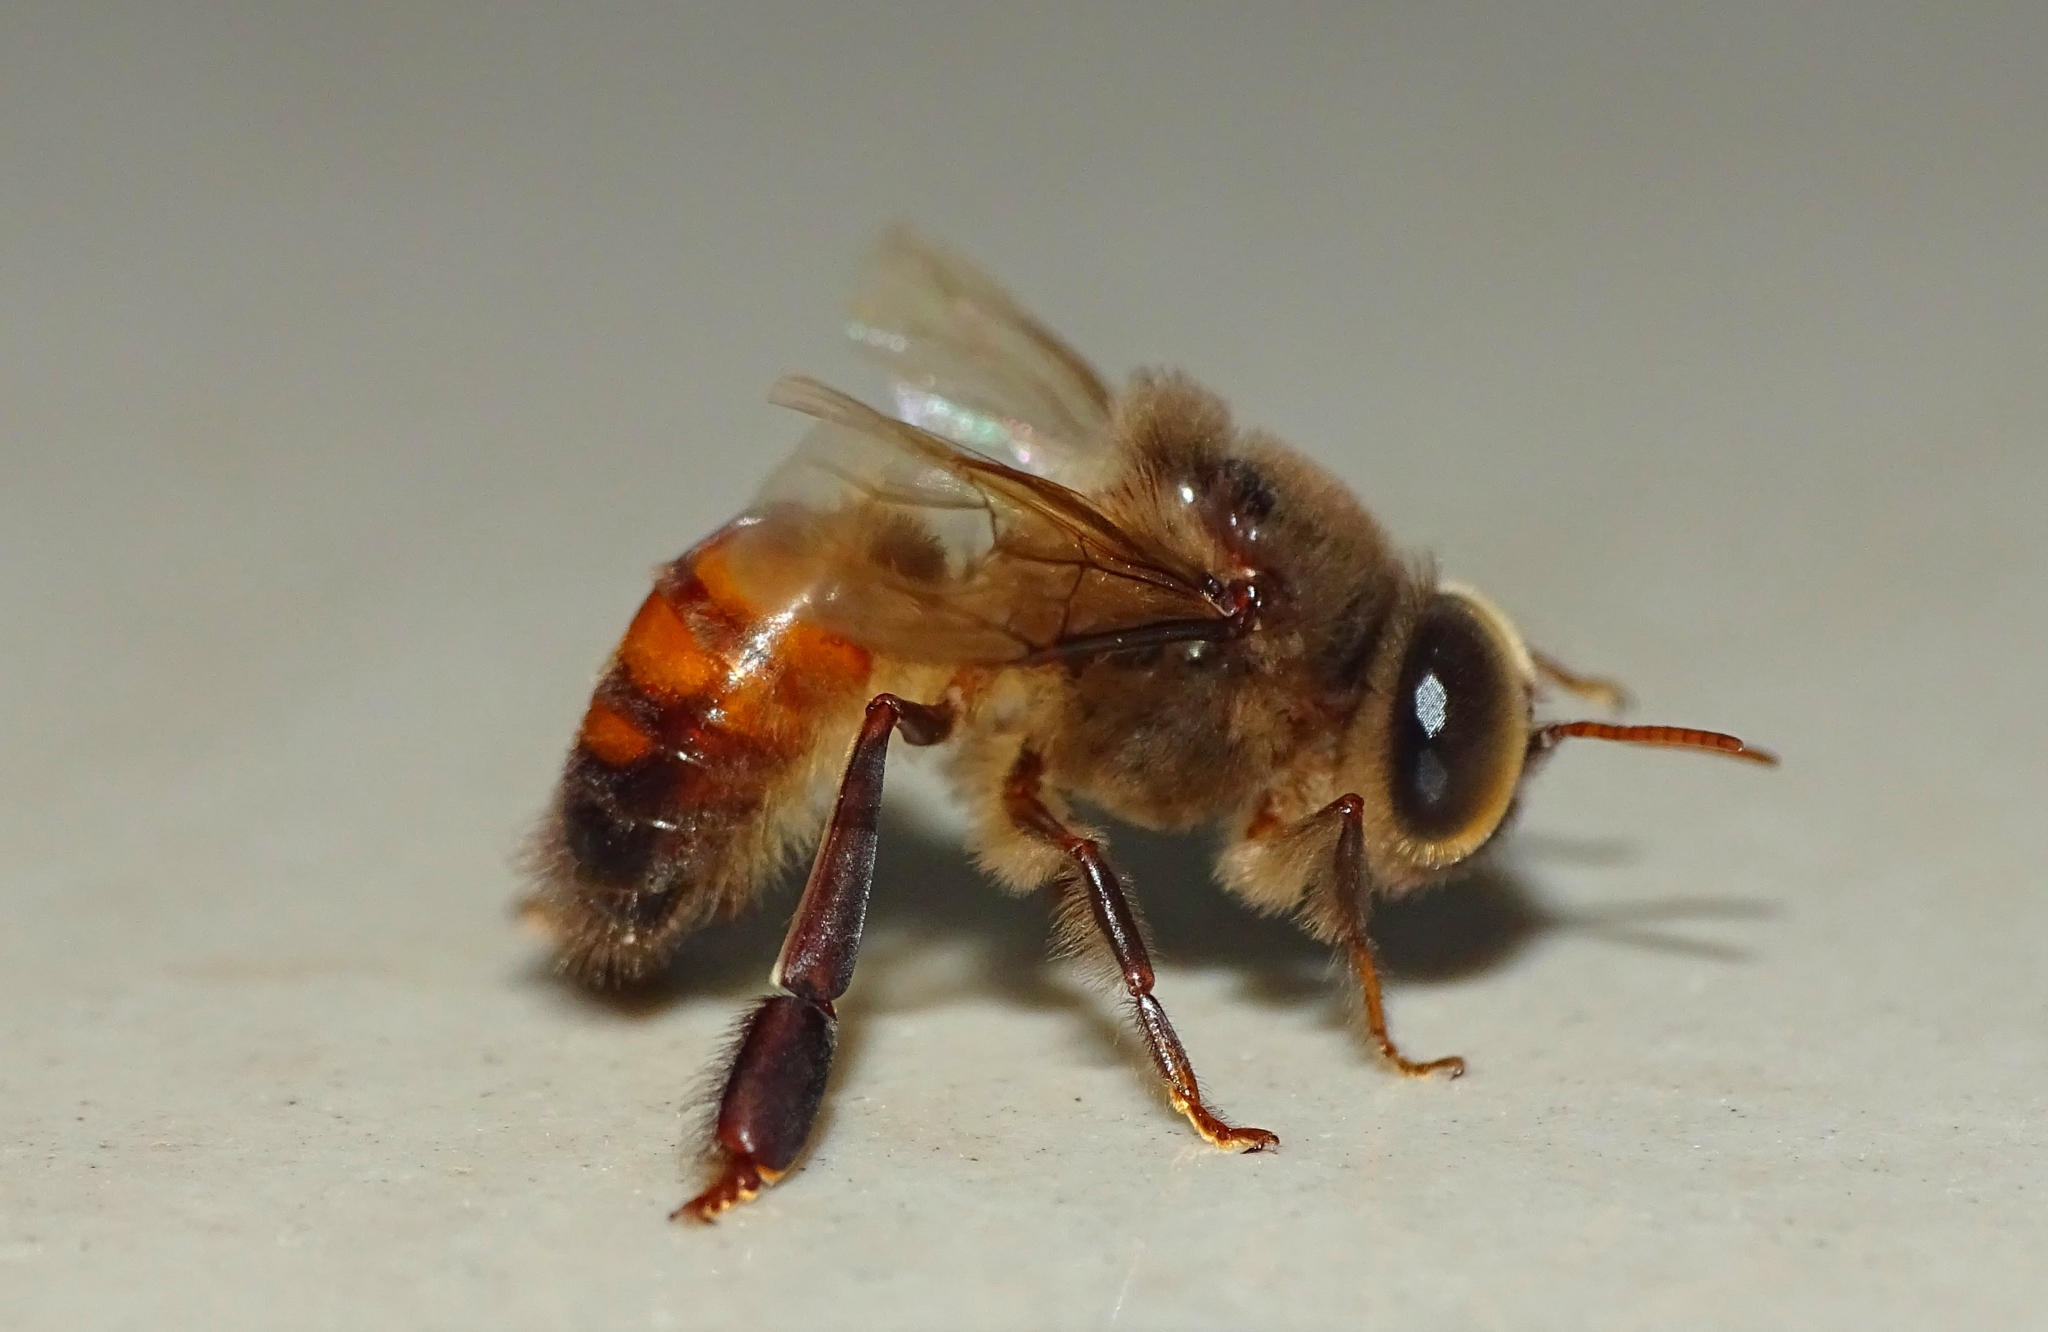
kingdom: Animalia
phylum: Arthropoda
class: Insecta
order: Hymenoptera
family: Apidae
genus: Apis
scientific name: Apis cerana
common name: Honey bee
